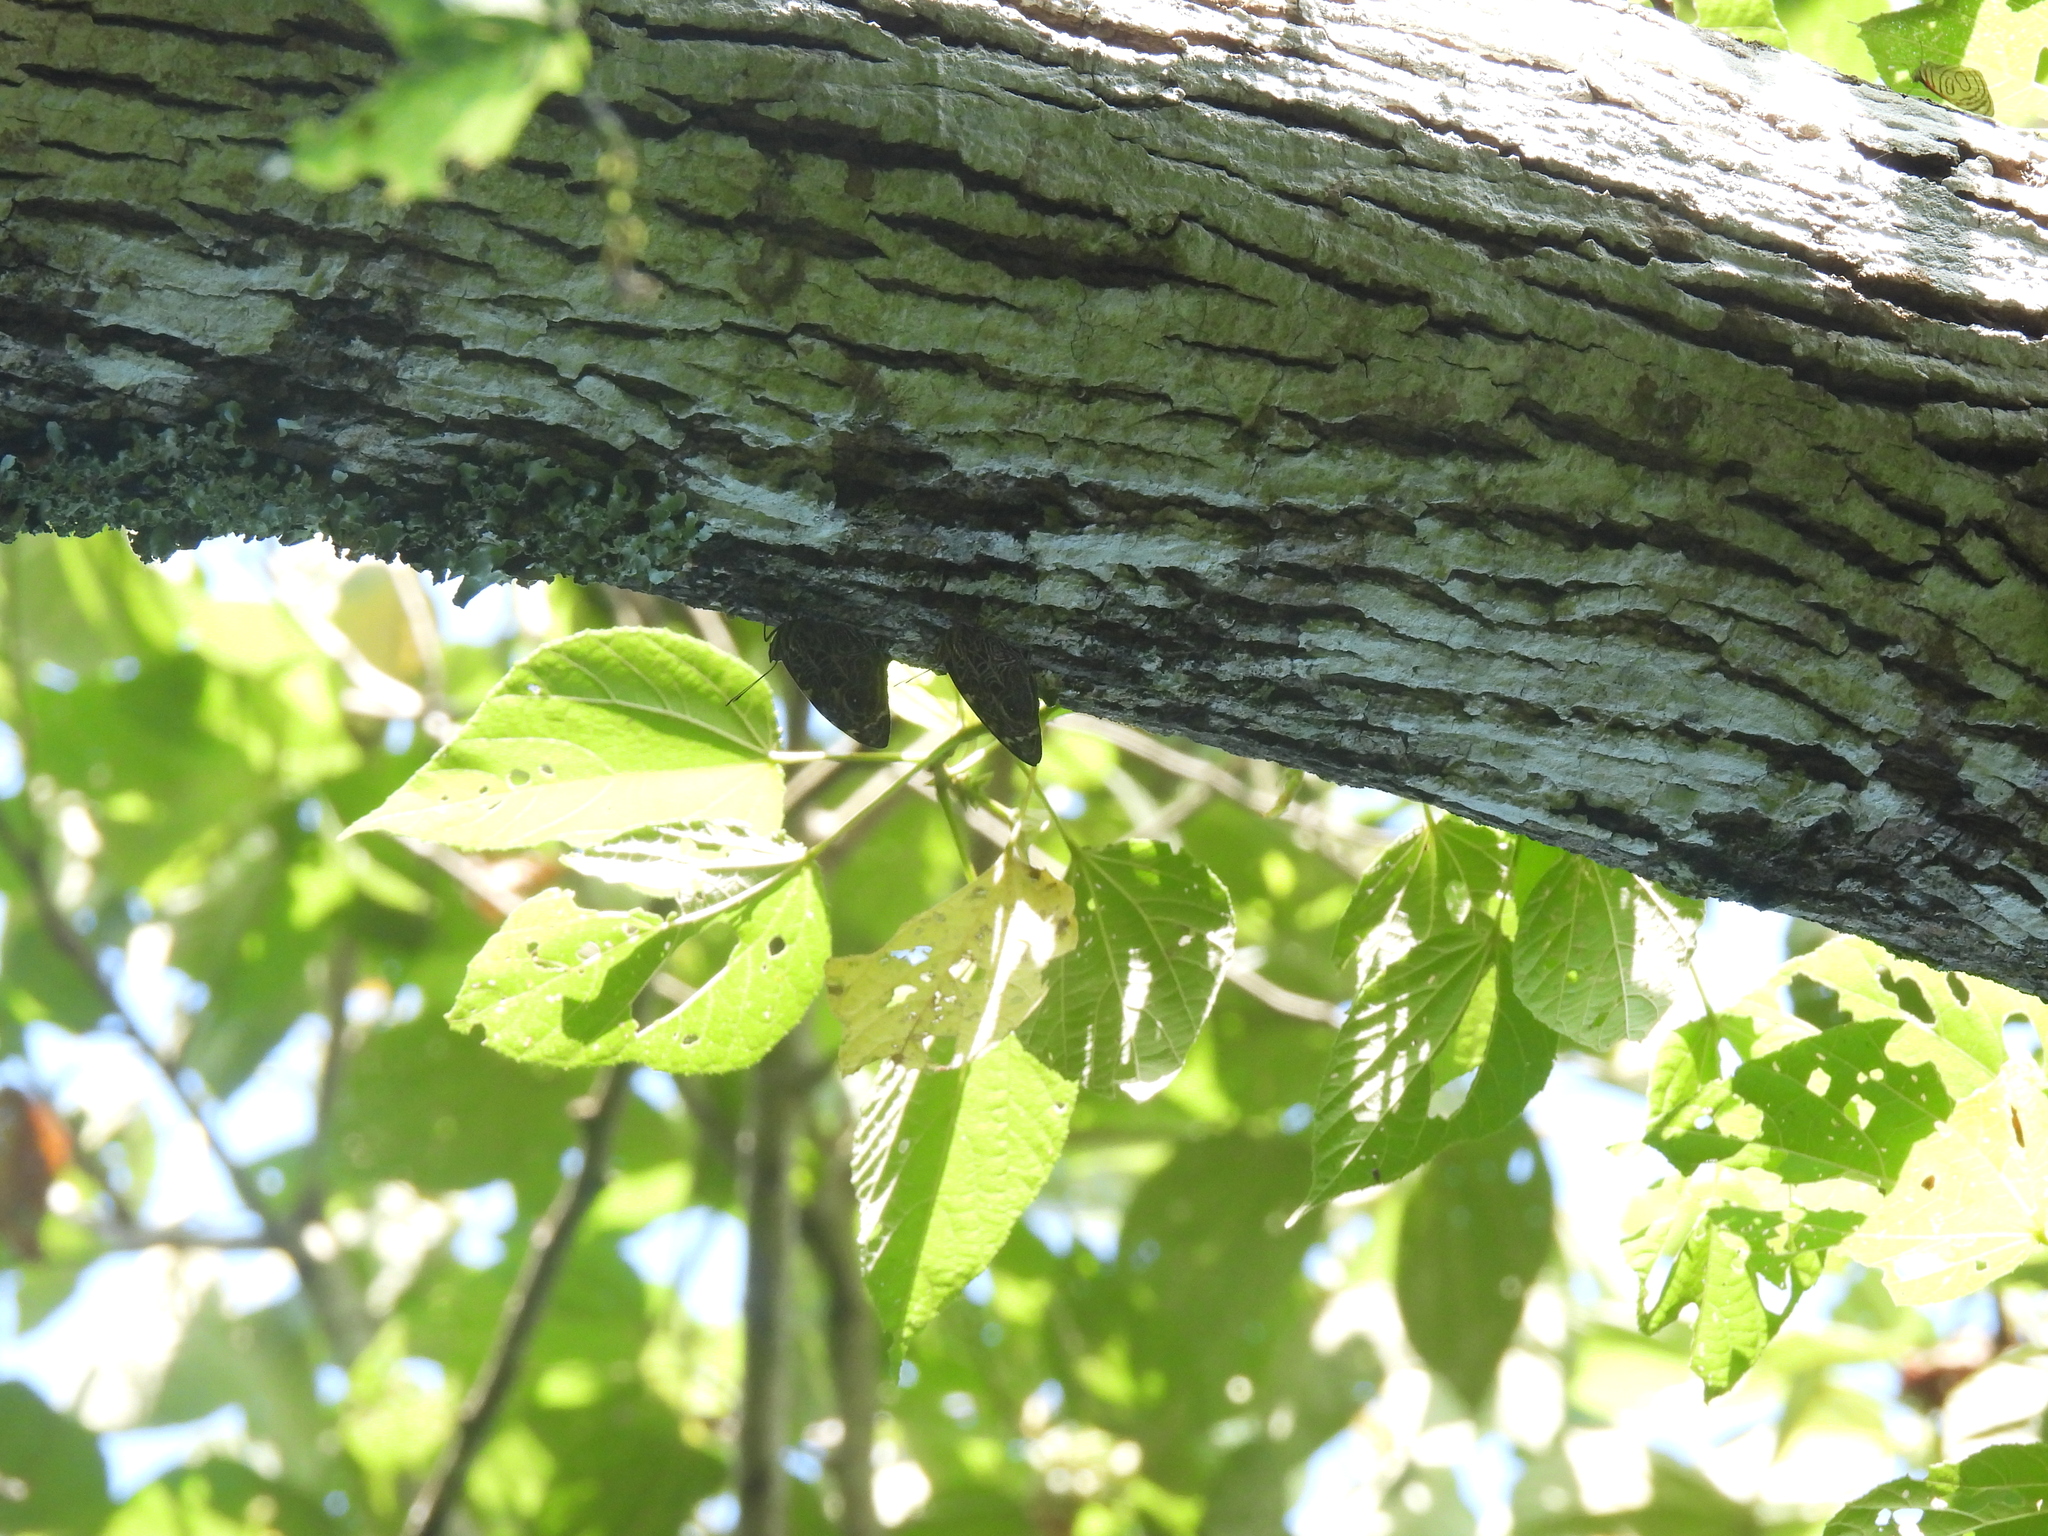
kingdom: Animalia
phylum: Arthropoda
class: Insecta
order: Lepidoptera
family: Nymphalidae
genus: Smyrna
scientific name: Smyrna blomfildia
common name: Blomfild's beauty
